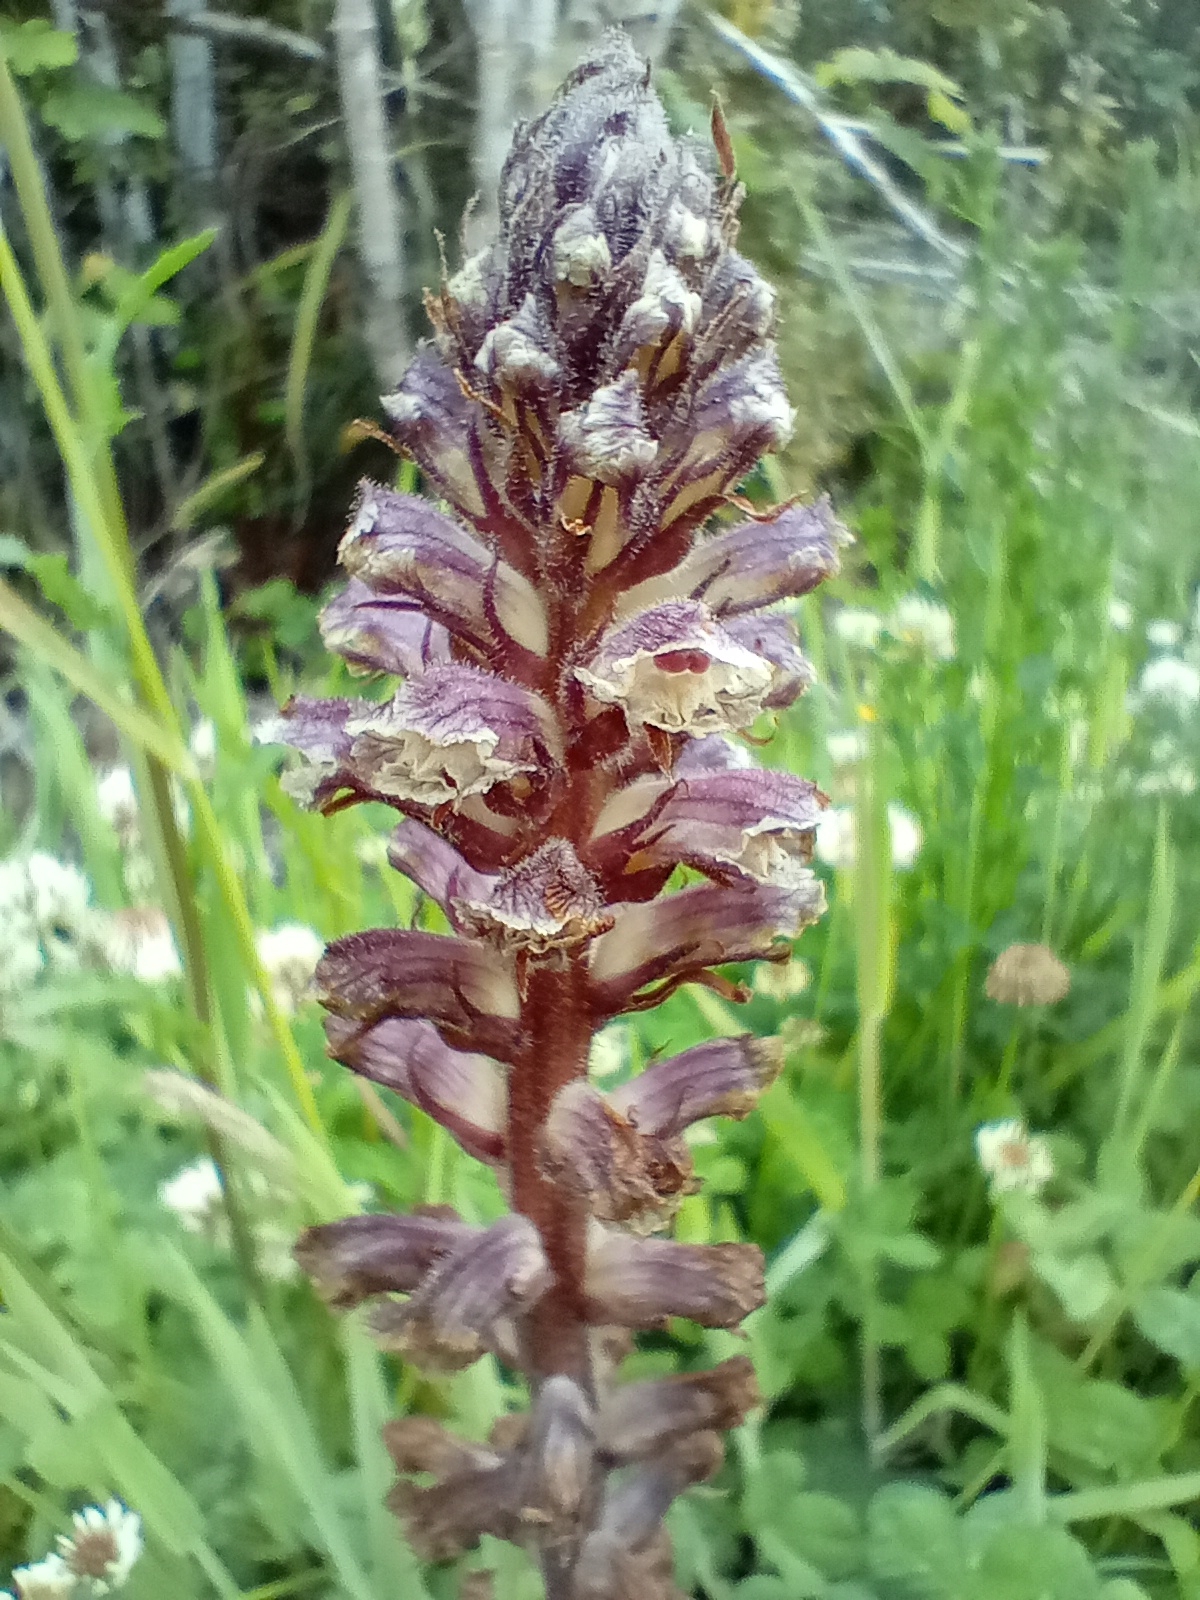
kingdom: Plantae
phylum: Tracheophyta
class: Magnoliopsida
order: Lamiales
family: Orobanchaceae
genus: Orobanche
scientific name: Orobanche minor
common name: Common broomrape
